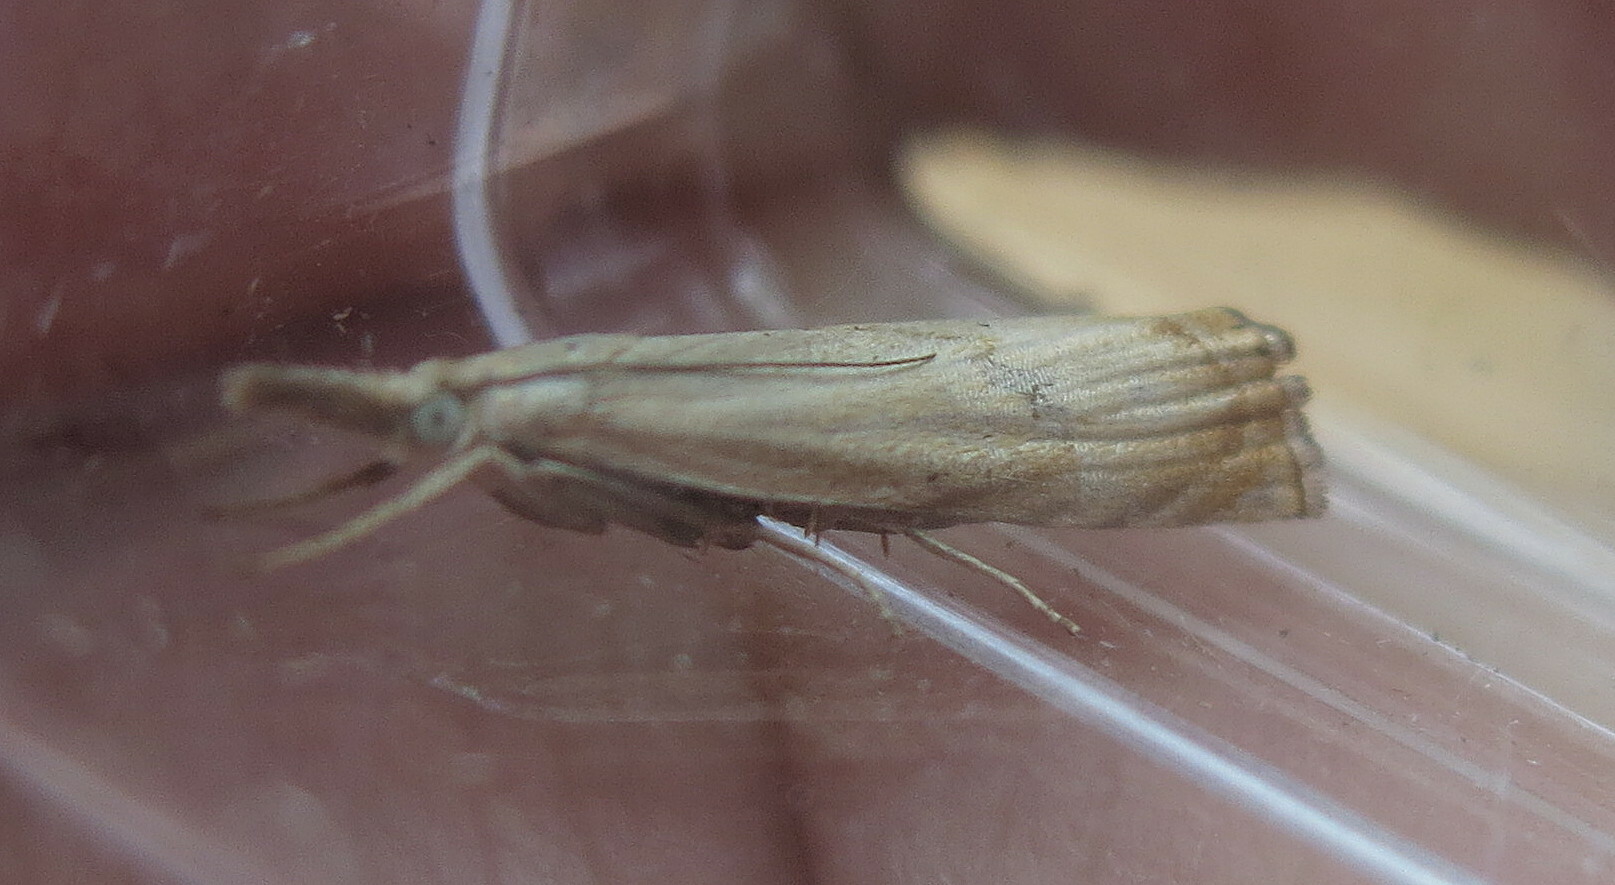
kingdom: Animalia
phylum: Arthropoda
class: Insecta
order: Lepidoptera
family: Crambidae
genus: Chrysoteuchia
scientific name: Chrysoteuchia culmella
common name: Garden grass-veneer
